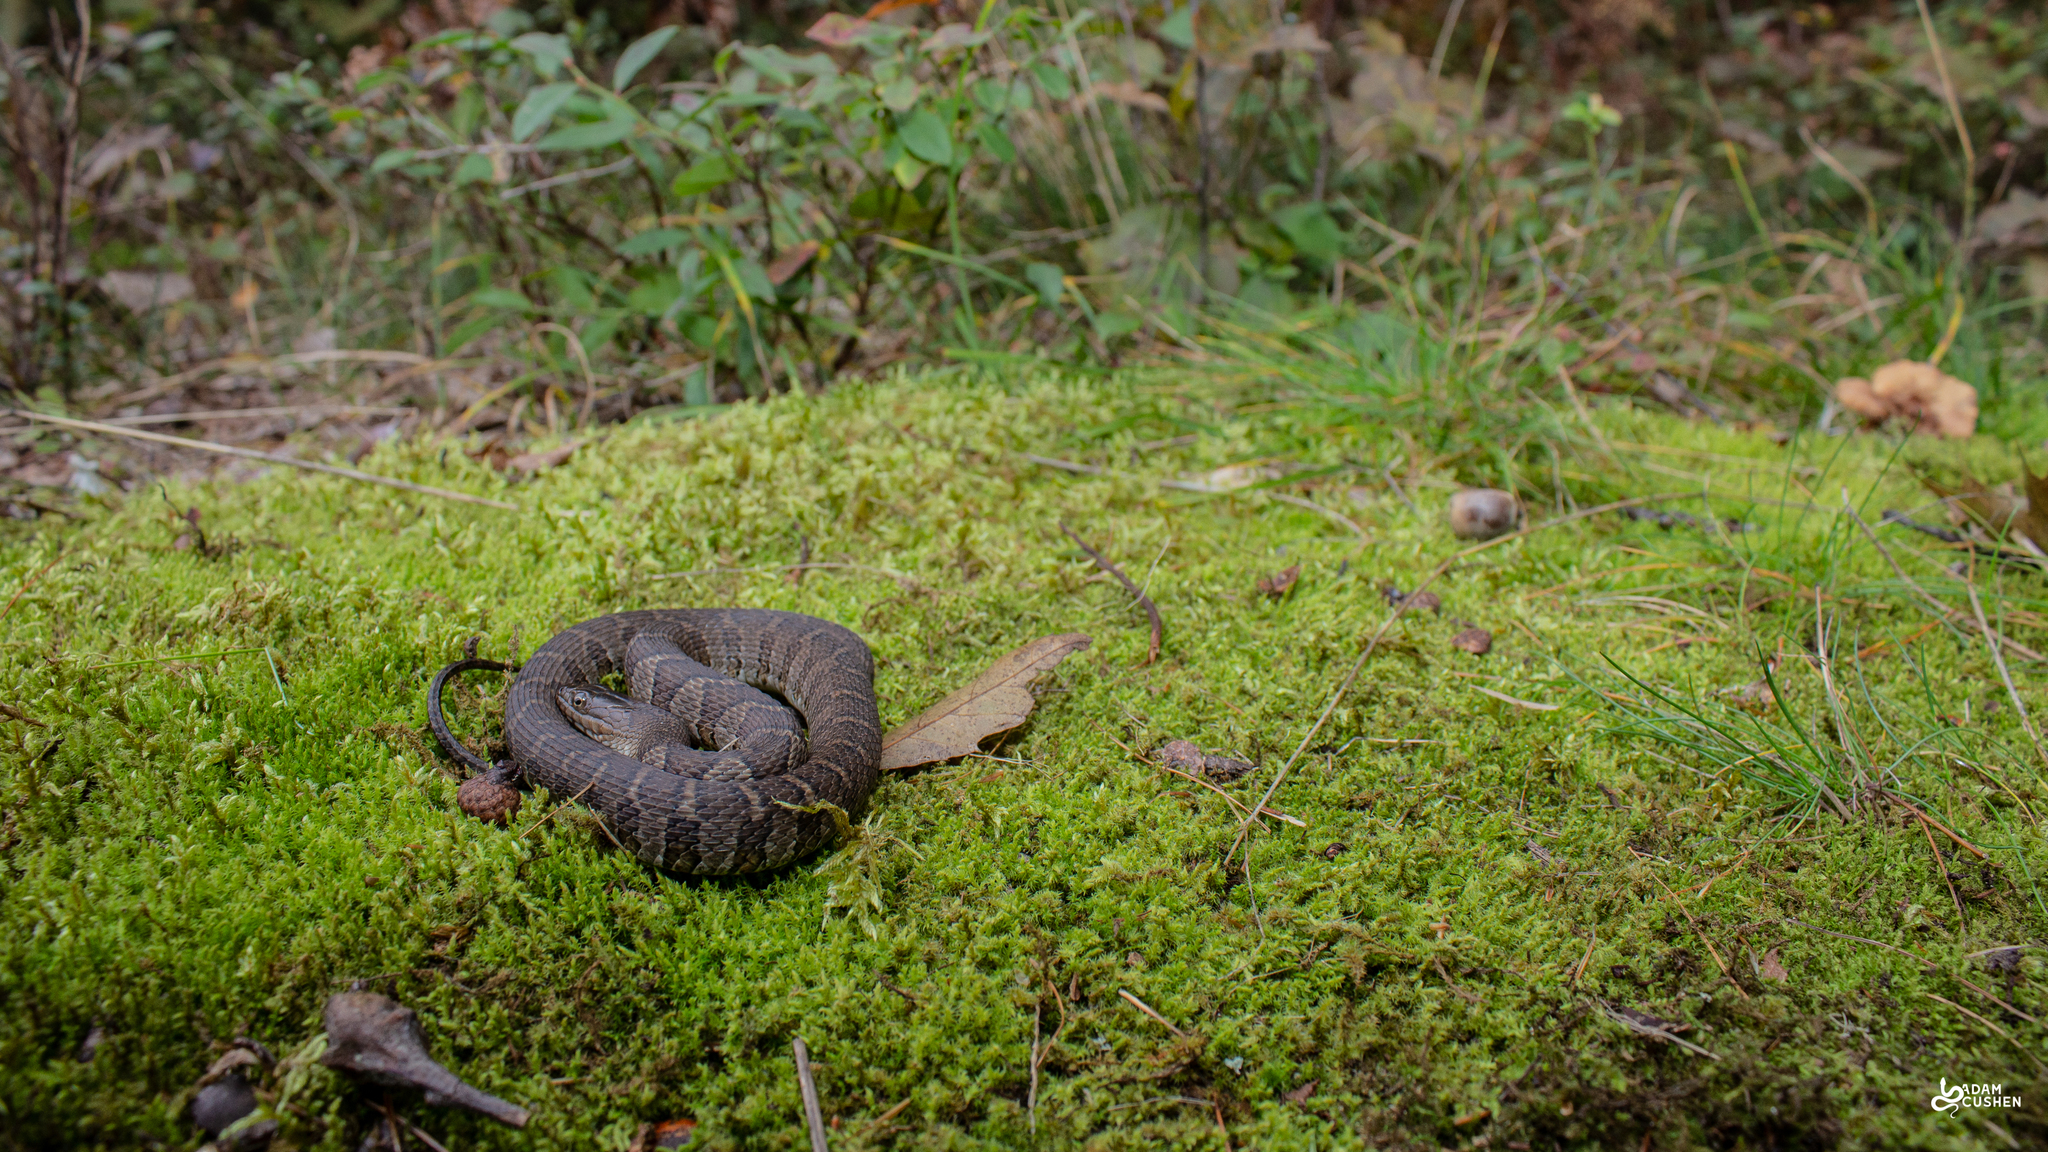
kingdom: Animalia
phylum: Chordata
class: Squamata
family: Colubridae
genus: Nerodia
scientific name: Nerodia sipedon
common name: Northern water snake
